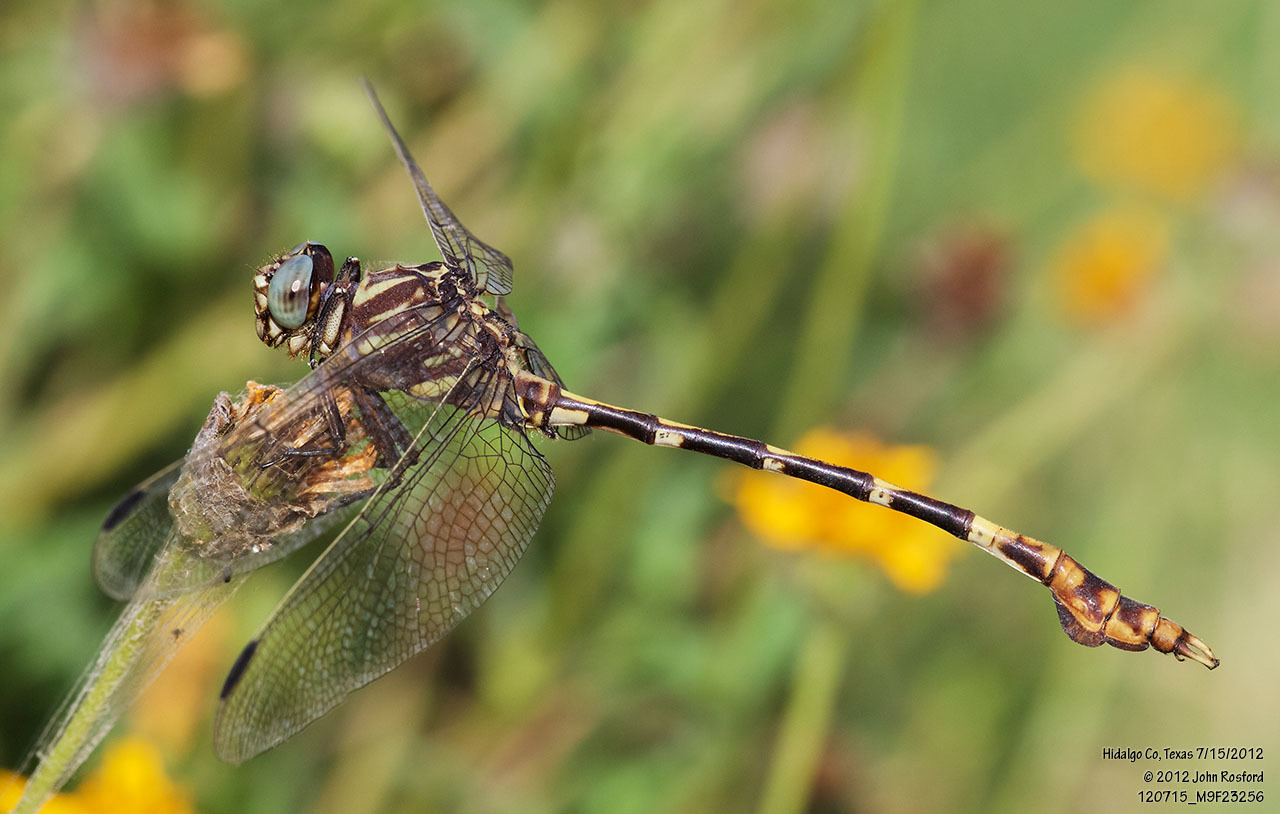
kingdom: Animalia
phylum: Arthropoda
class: Insecta
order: Odonata
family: Gomphidae
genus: Phyllogomphoides
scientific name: Phyllogomphoides albrighti
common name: Five-striped leaftail
